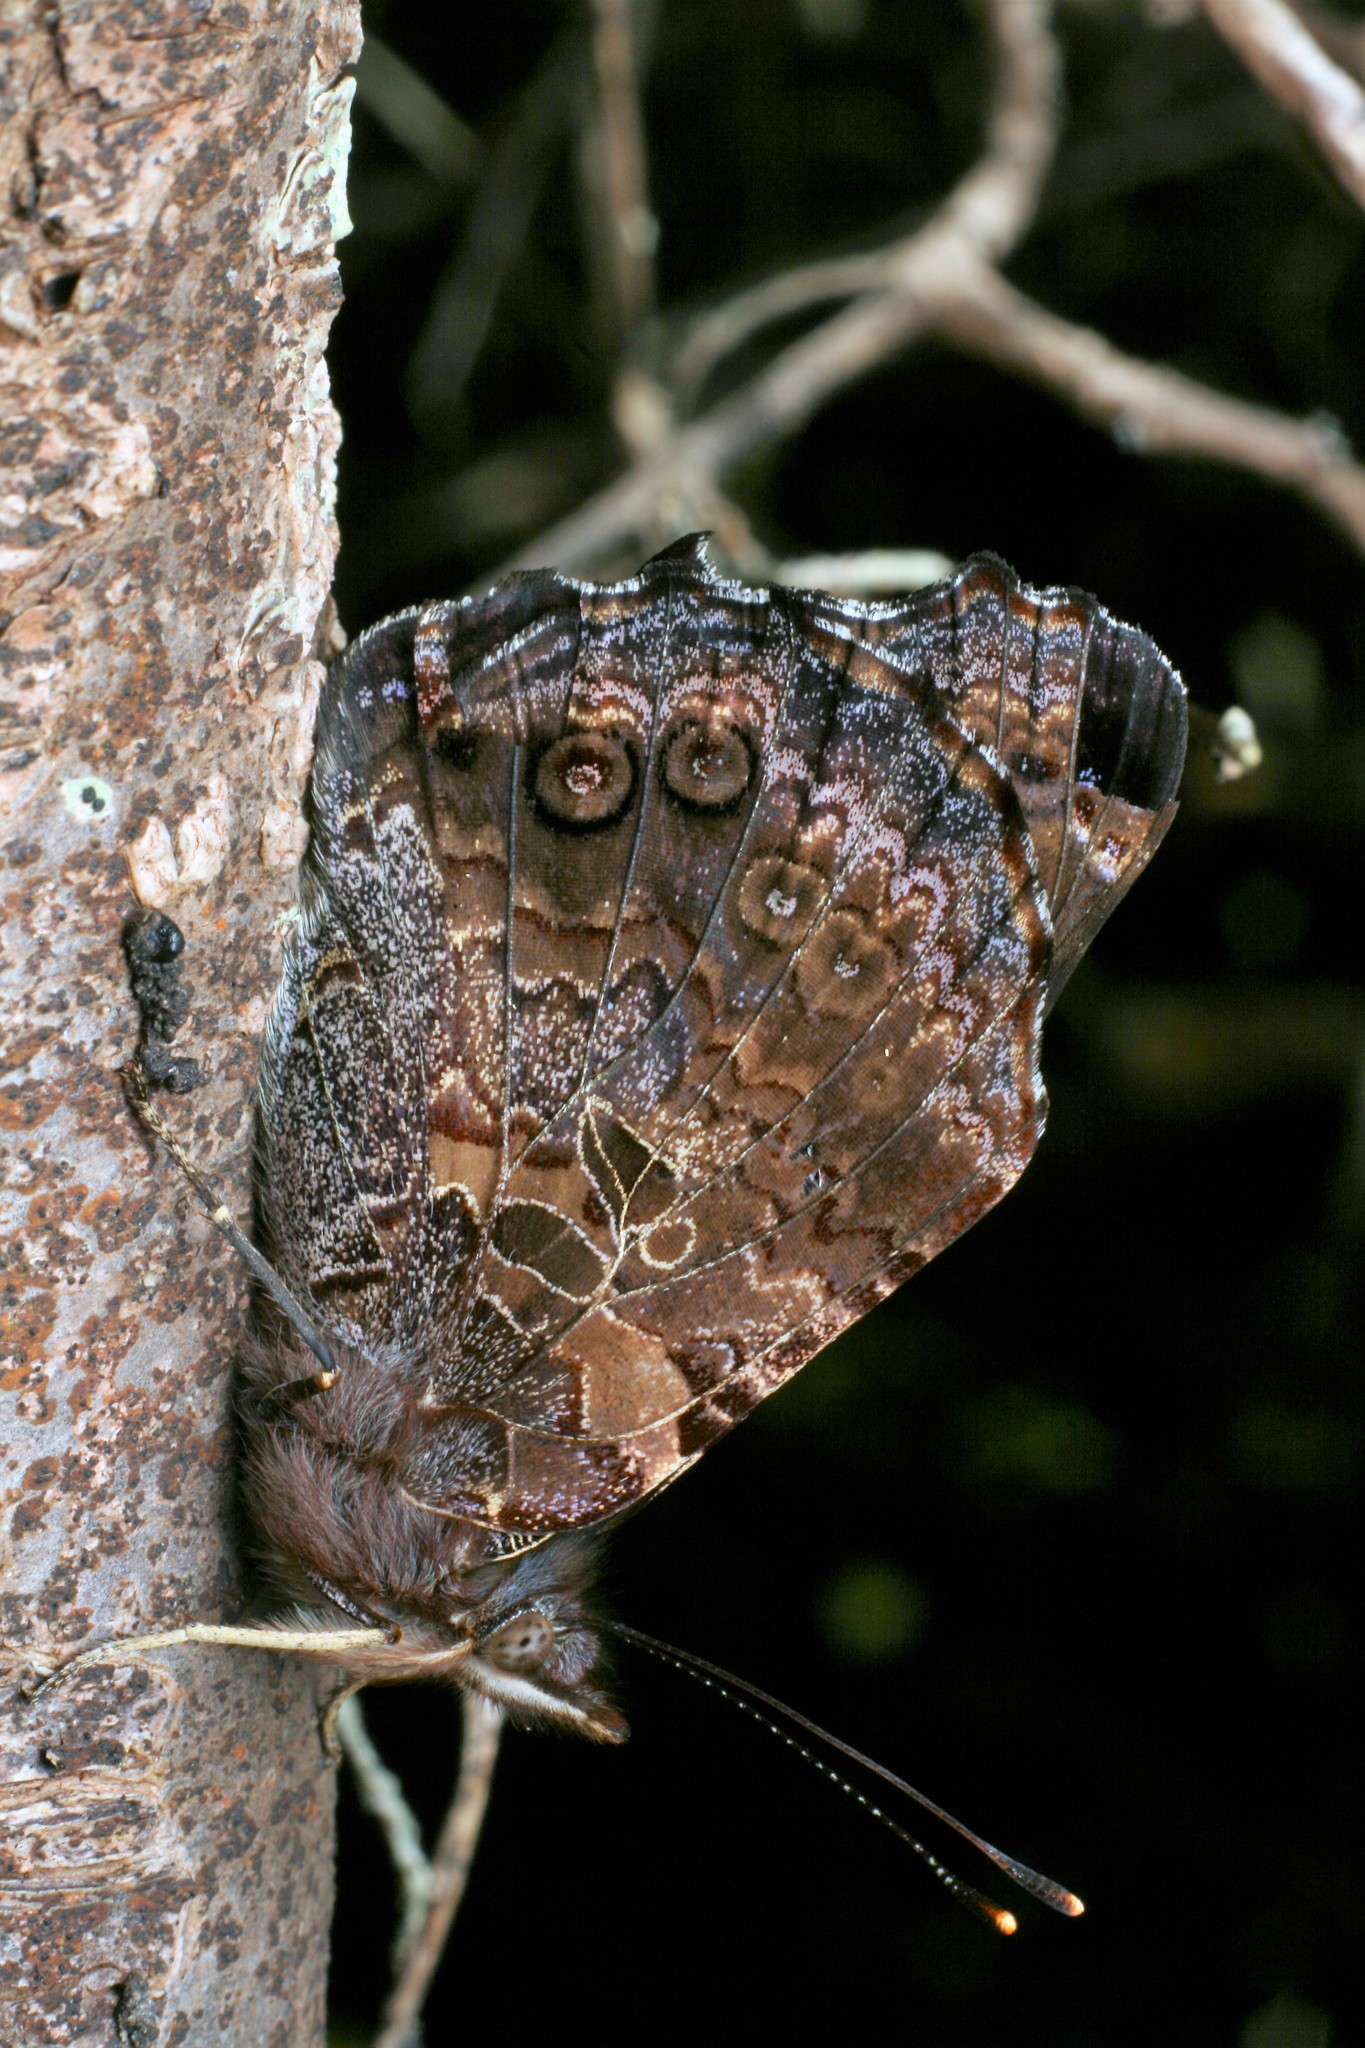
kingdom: Animalia
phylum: Arthropoda
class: Insecta
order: Lepidoptera
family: Nymphalidae
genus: Vanessa
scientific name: Vanessa gonerilla
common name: New zealand red admiral
